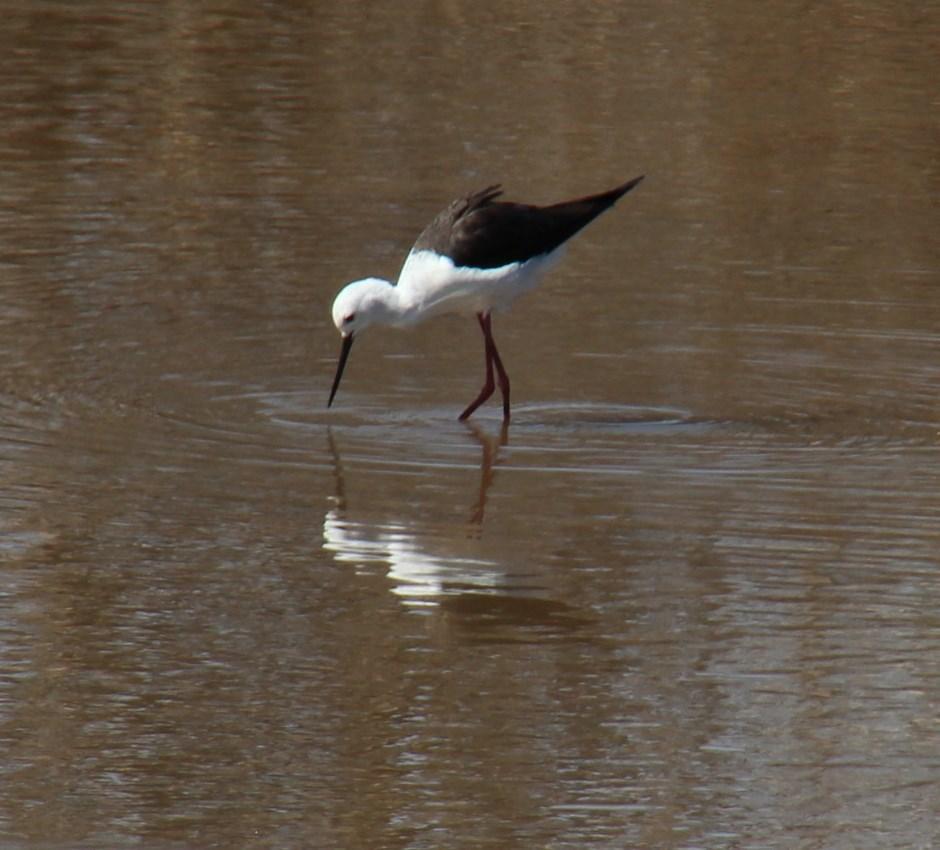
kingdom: Animalia
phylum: Chordata
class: Aves
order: Charadriiformes
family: Recurvirostridae
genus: Himantopus
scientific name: Himantopus himantopus
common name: Black-winged stilt
